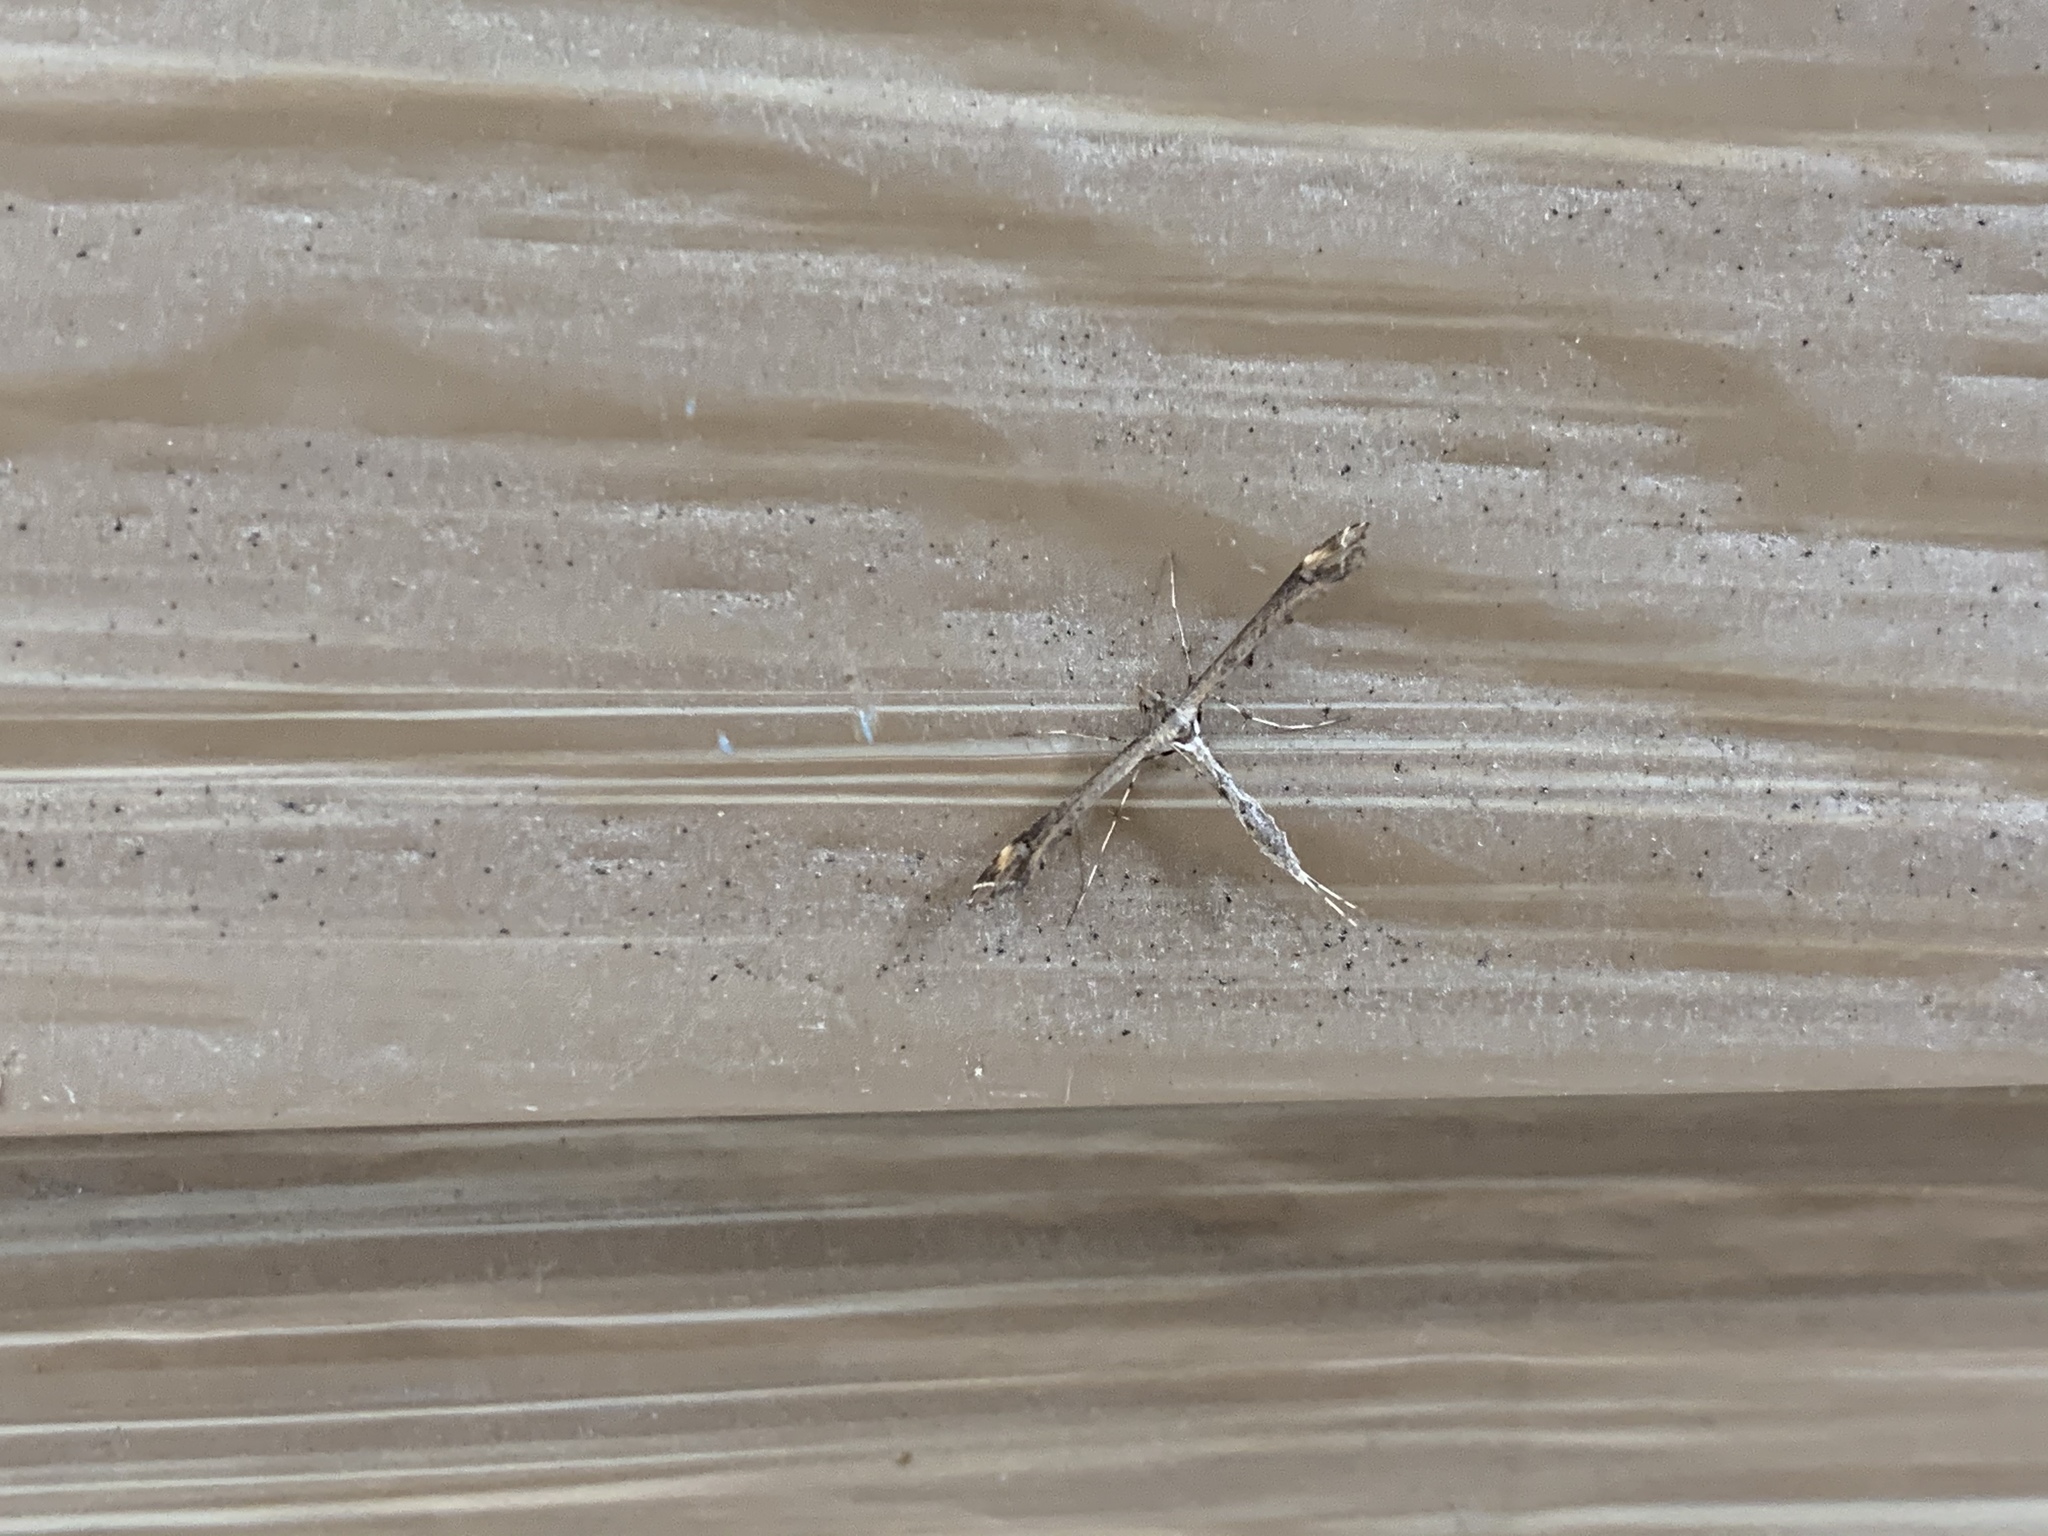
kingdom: Animalia
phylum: Arthropoda
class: Insecta
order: Lepidoptera
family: Pterophoridae
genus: Anstenoptilia
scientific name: Anstenoptilia marmarodactyla
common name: Moth
